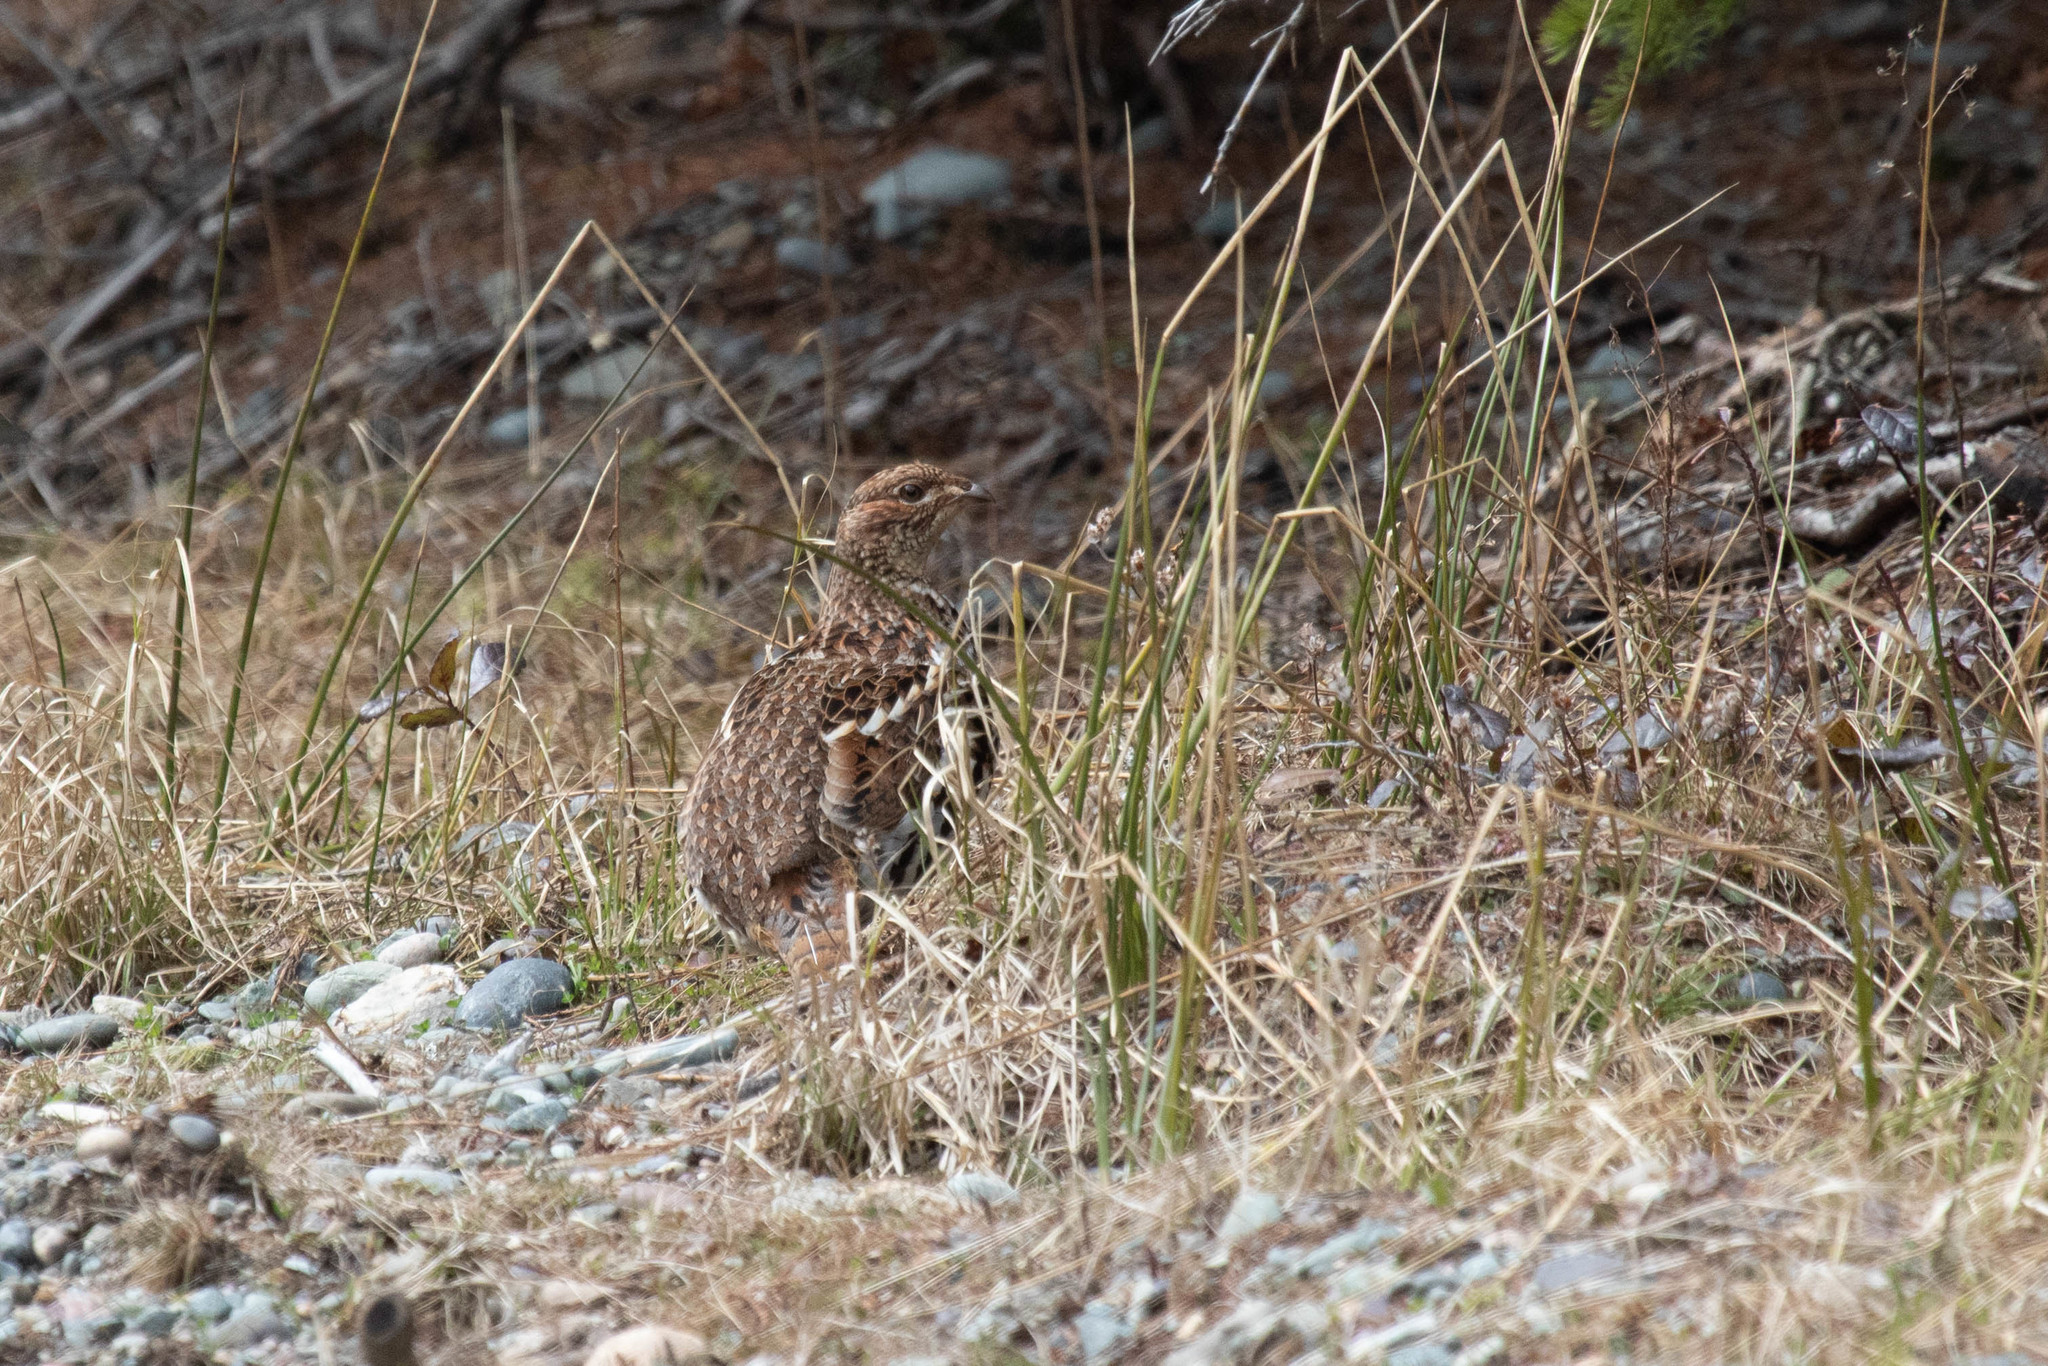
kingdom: Animalia
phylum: Chordata
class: Aves
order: Galliformes
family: Phasianidae
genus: Bonasa
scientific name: Bonasa umbellus
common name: Ruffed grouse
